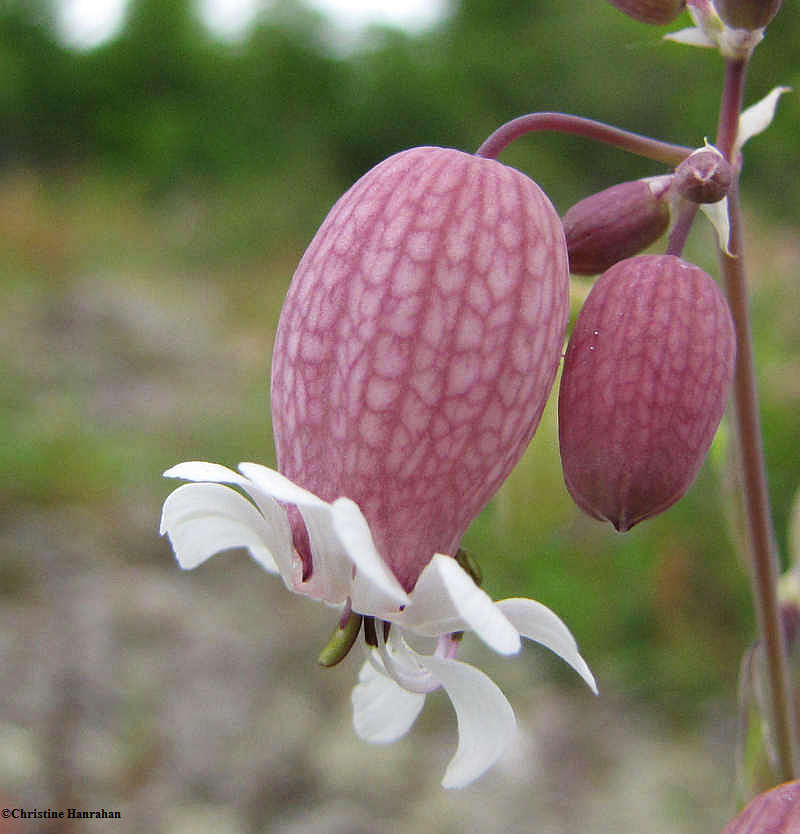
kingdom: Plantae
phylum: Tracheophyta
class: Magnoliopsida
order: Caryophyllales
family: Caryophyllaceae
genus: Silene
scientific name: Silene vulgaris
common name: Bladder campion
